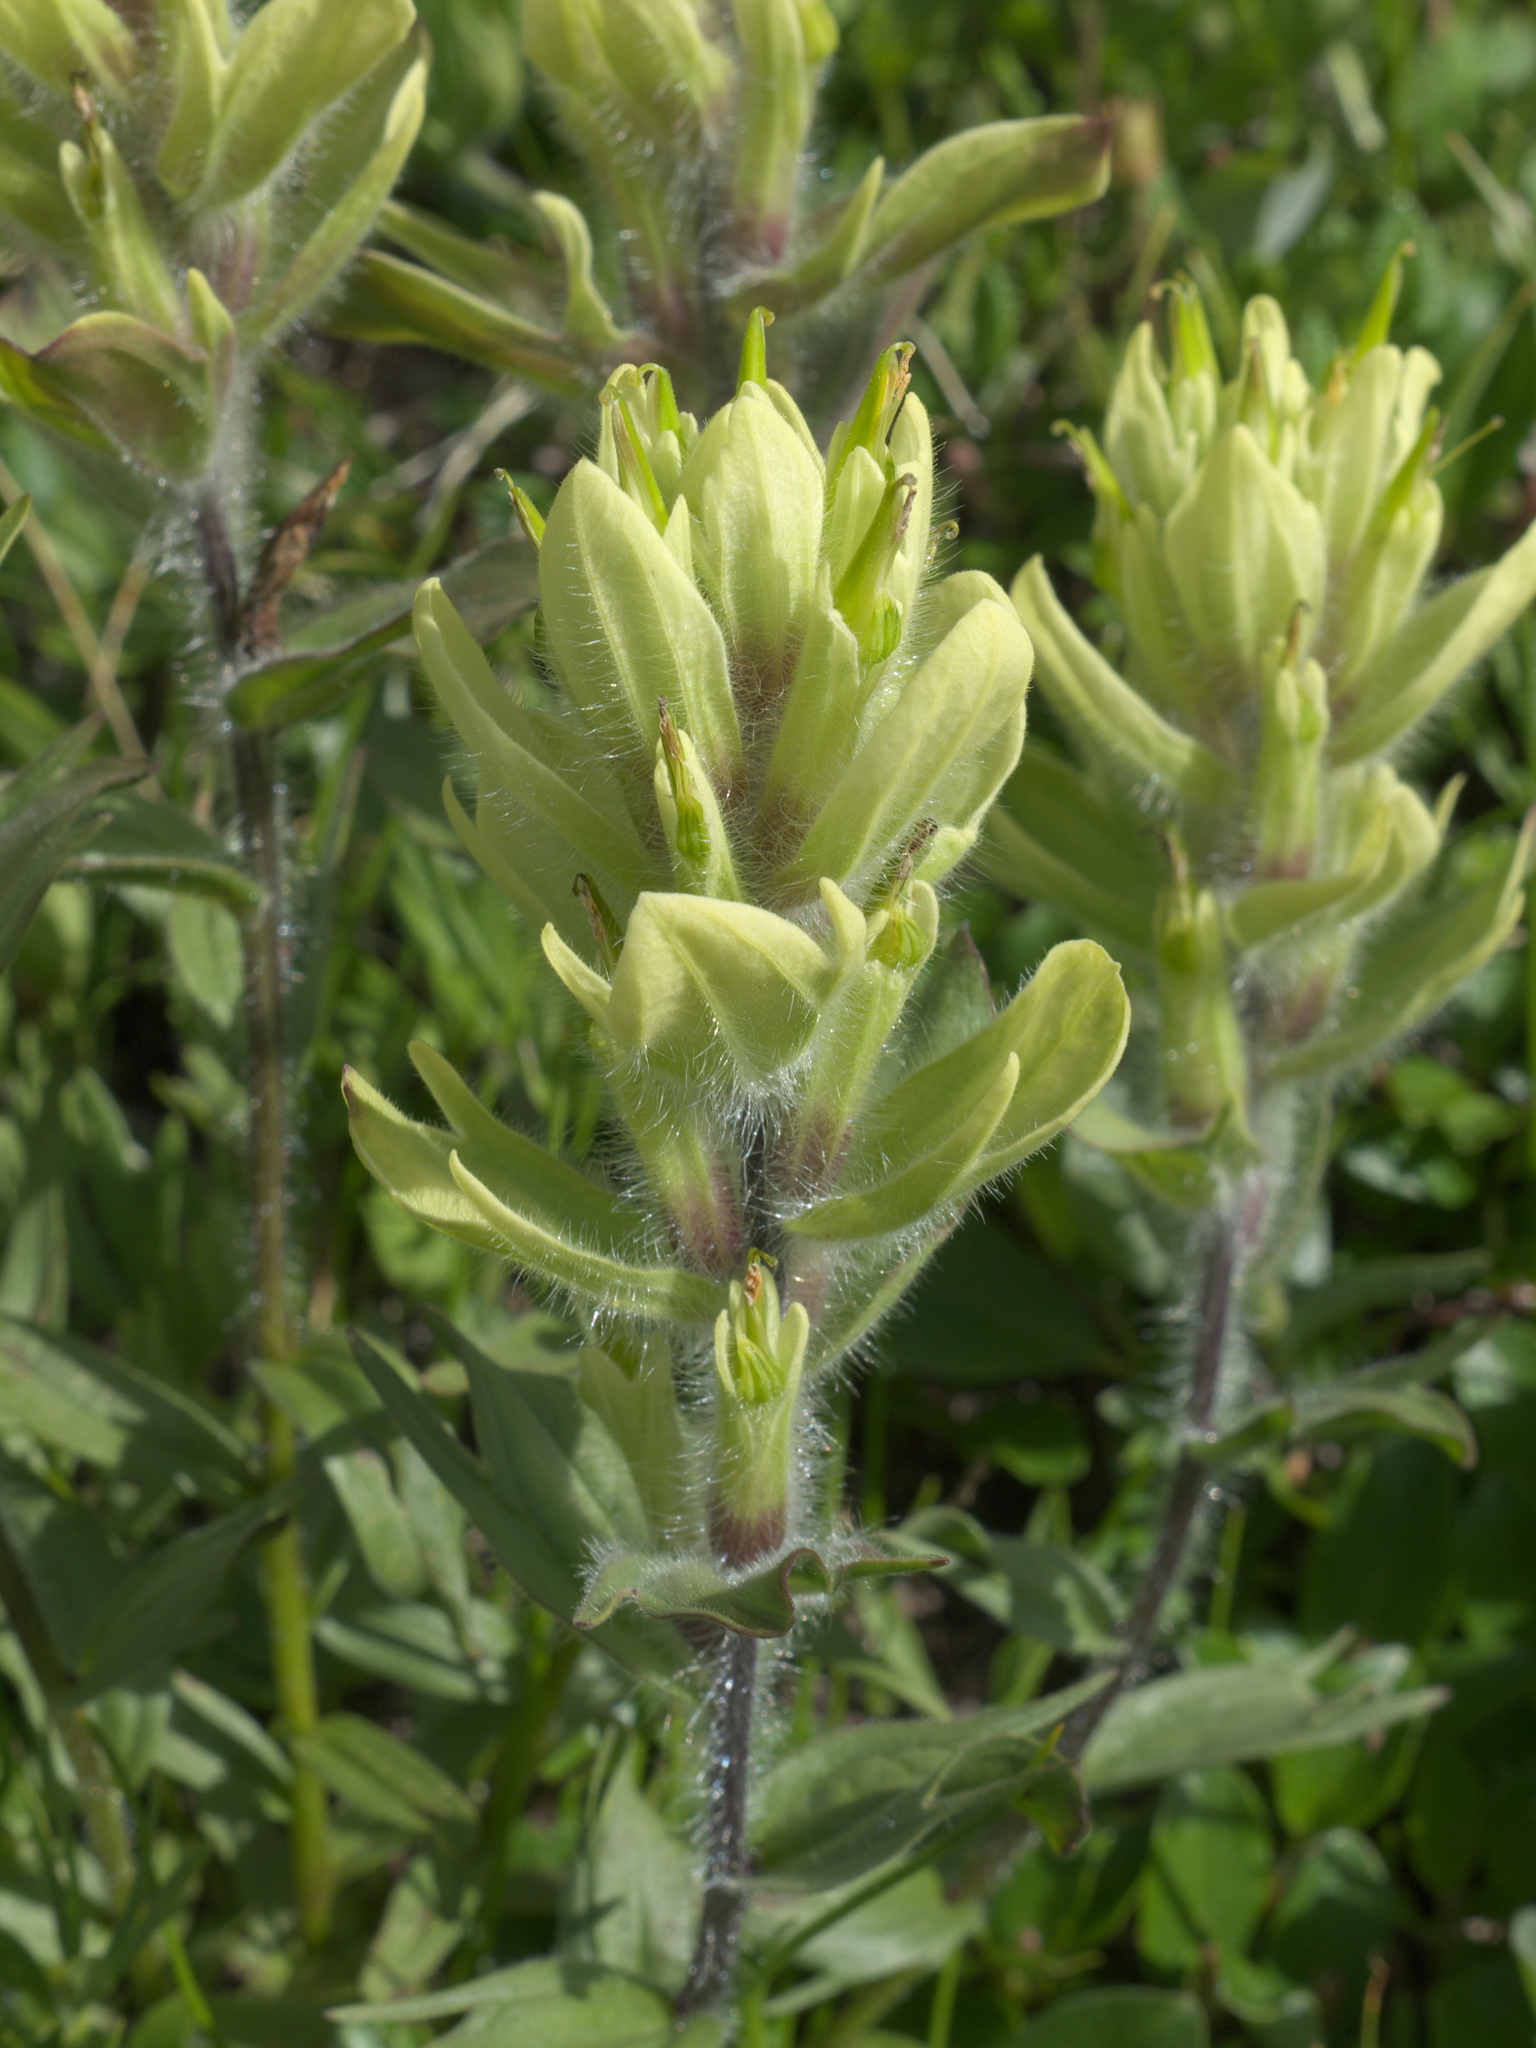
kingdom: Plantae
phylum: Tracheophyta
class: Magnoliopsida
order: Lamiales
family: Orobanchaceae
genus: Castilleja
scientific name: Castilleja occidentalis
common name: Western paintbrush
